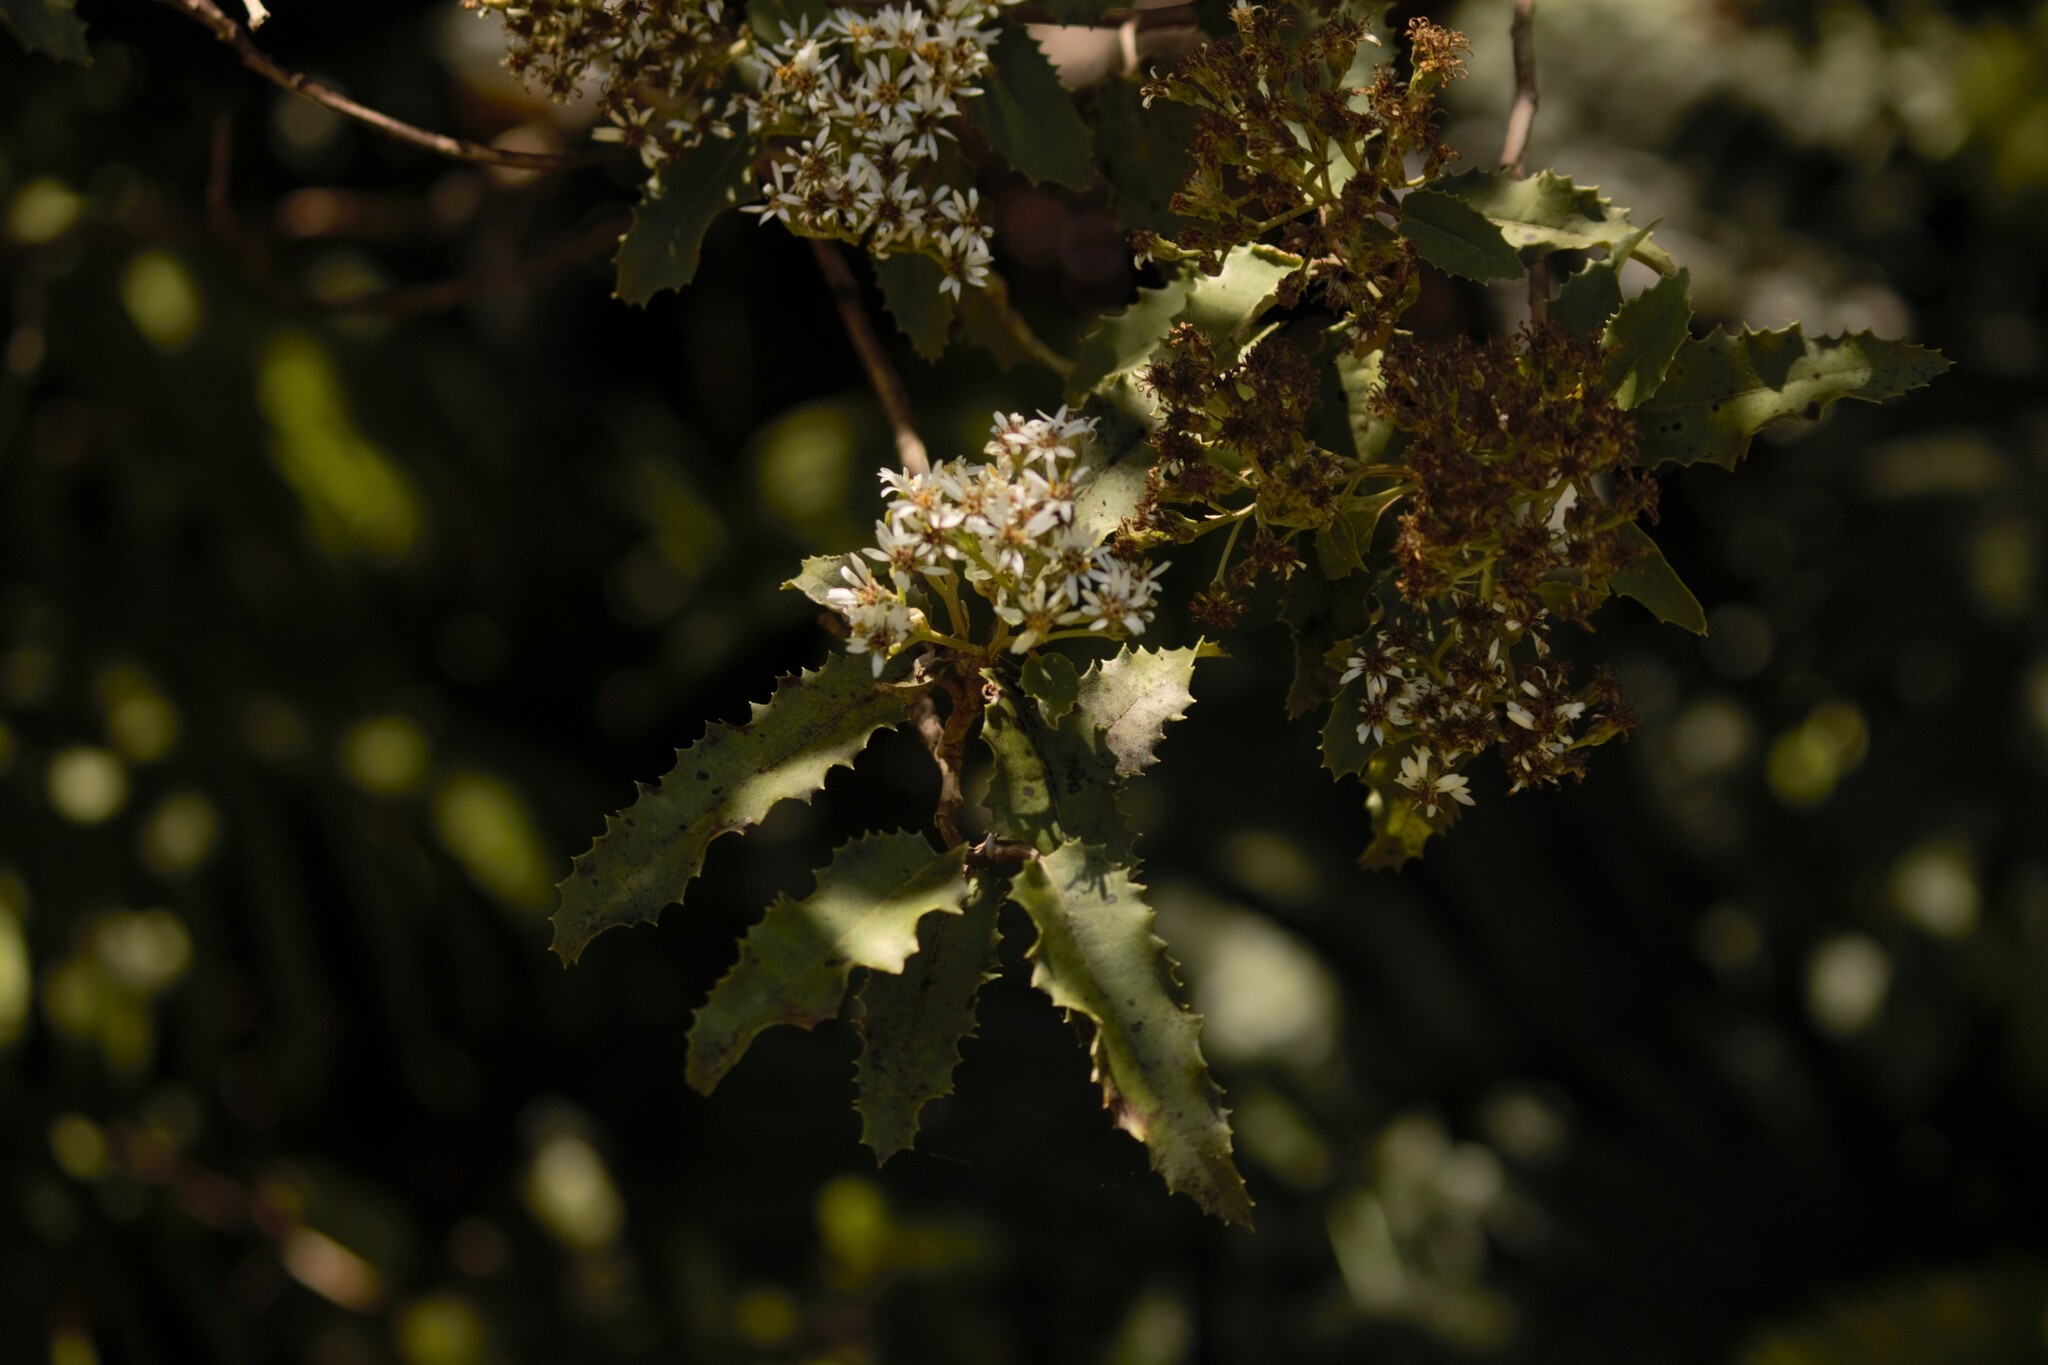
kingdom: Plantae
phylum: Tracheophyta
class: Magnoliopsida
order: Asterales
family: Asteraceae
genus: Olearia
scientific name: Olearia ilicifolia
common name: Maori-holly
